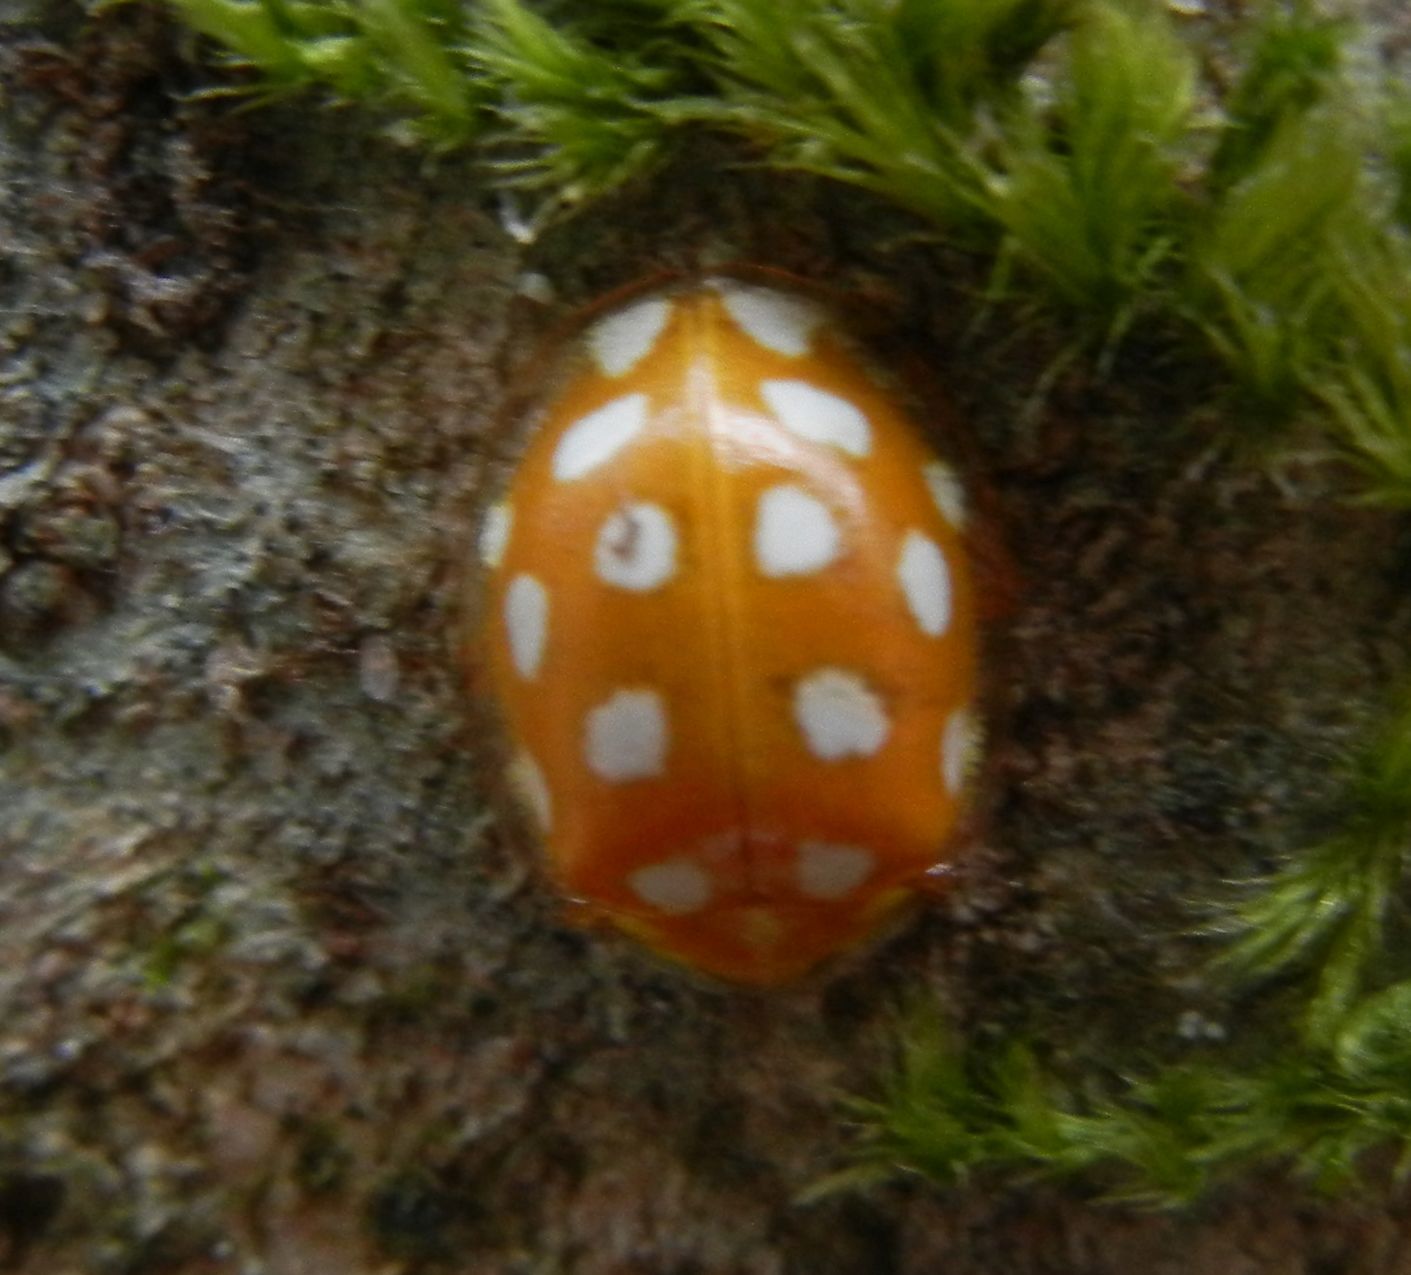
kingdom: Animalia
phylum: Arthropoda
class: Insecta
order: Coleoptera
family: Coccinellidae
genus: Halyzia
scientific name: Halyzia sedecimguttata
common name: Orange ladybird
